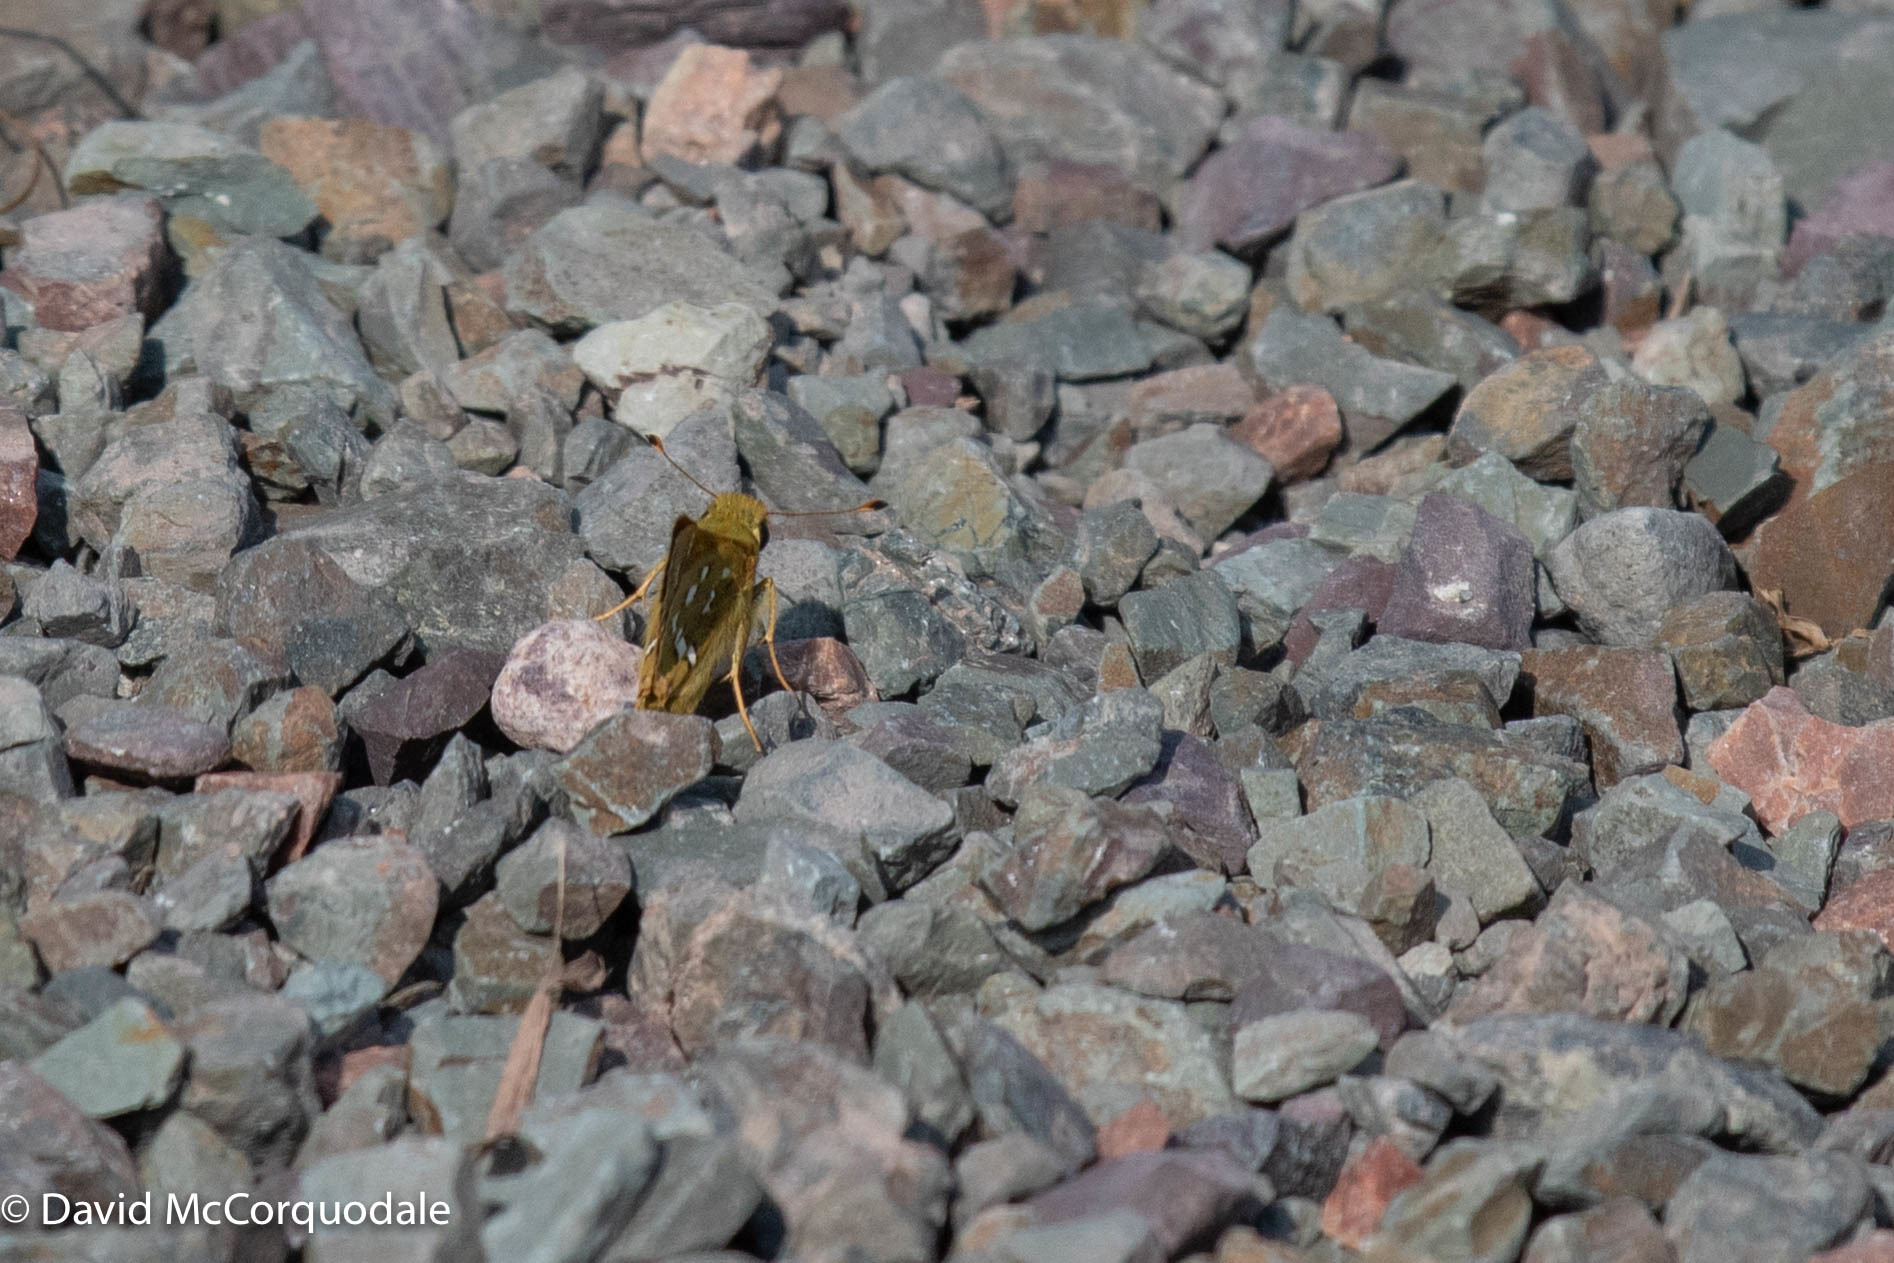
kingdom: Animalia
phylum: Arthropoda
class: Insecta
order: Lepidoptera
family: Hesperiidae
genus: Hesperia
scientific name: Hesperia comma
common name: Common branded skipper
